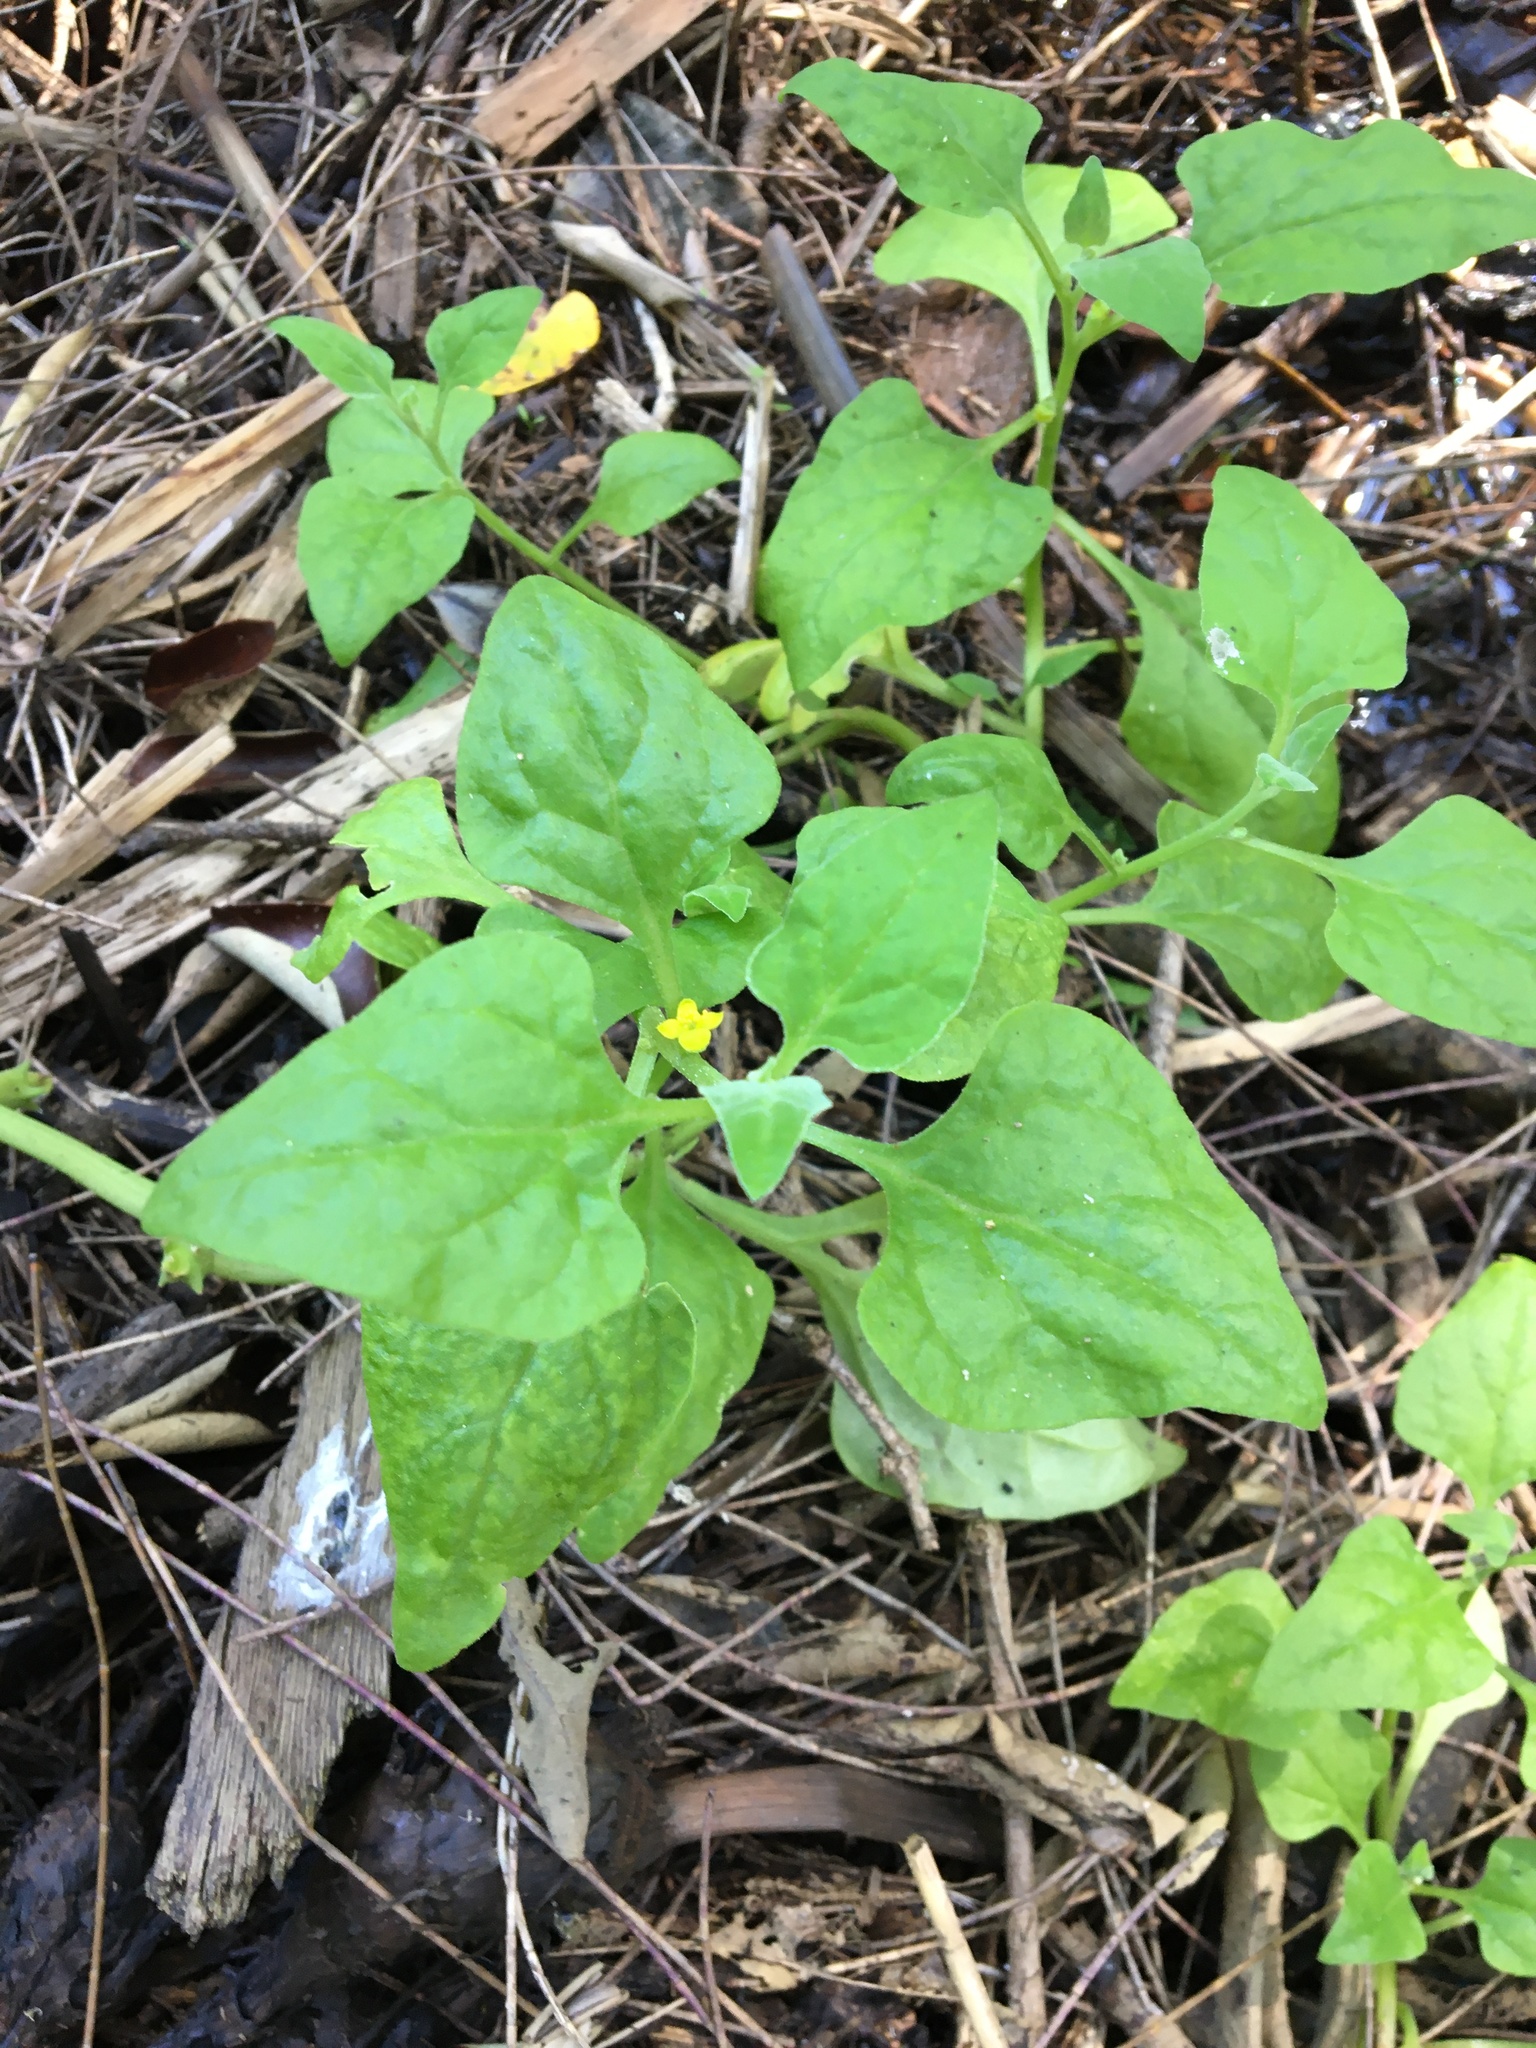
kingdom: Plantae
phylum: Tracheophyta
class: Magnoliopsida
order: Caryophyllales
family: Aizoaceae
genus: Tetragonia
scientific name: Tetragonia tetragonoides
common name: New zealand-spinach
